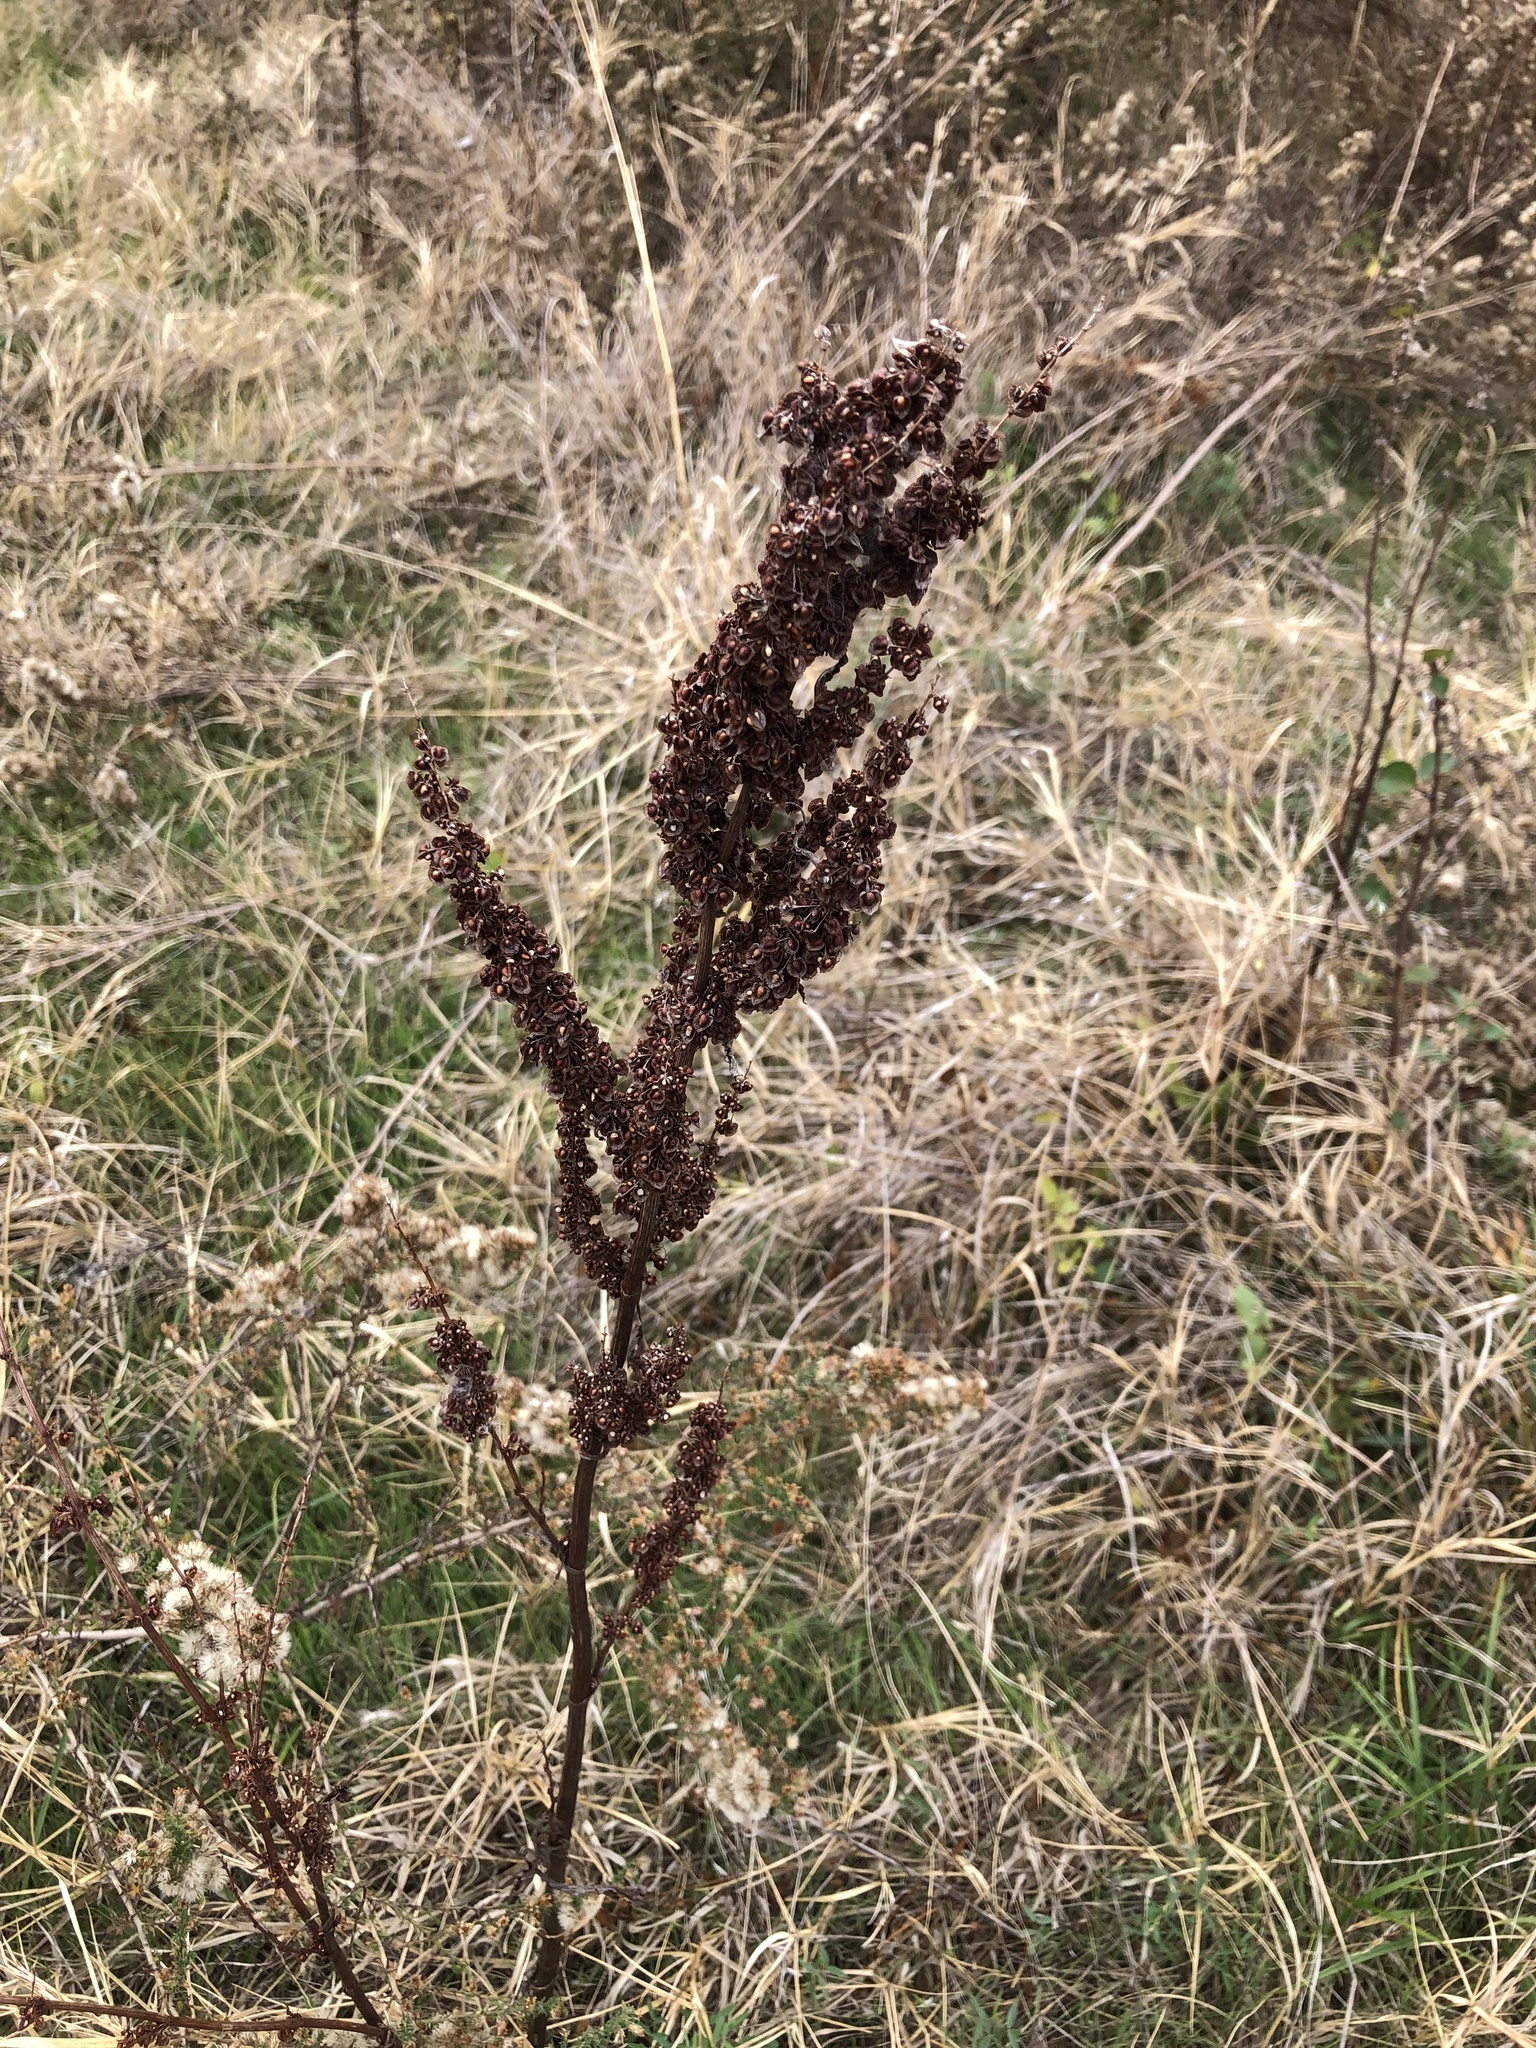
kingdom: Plantae
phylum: Tracheophyta
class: Magnoliopsida
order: Caryophyllales
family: Polygonaceae
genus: Rumex
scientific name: Rumex crispus
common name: Curled dock
